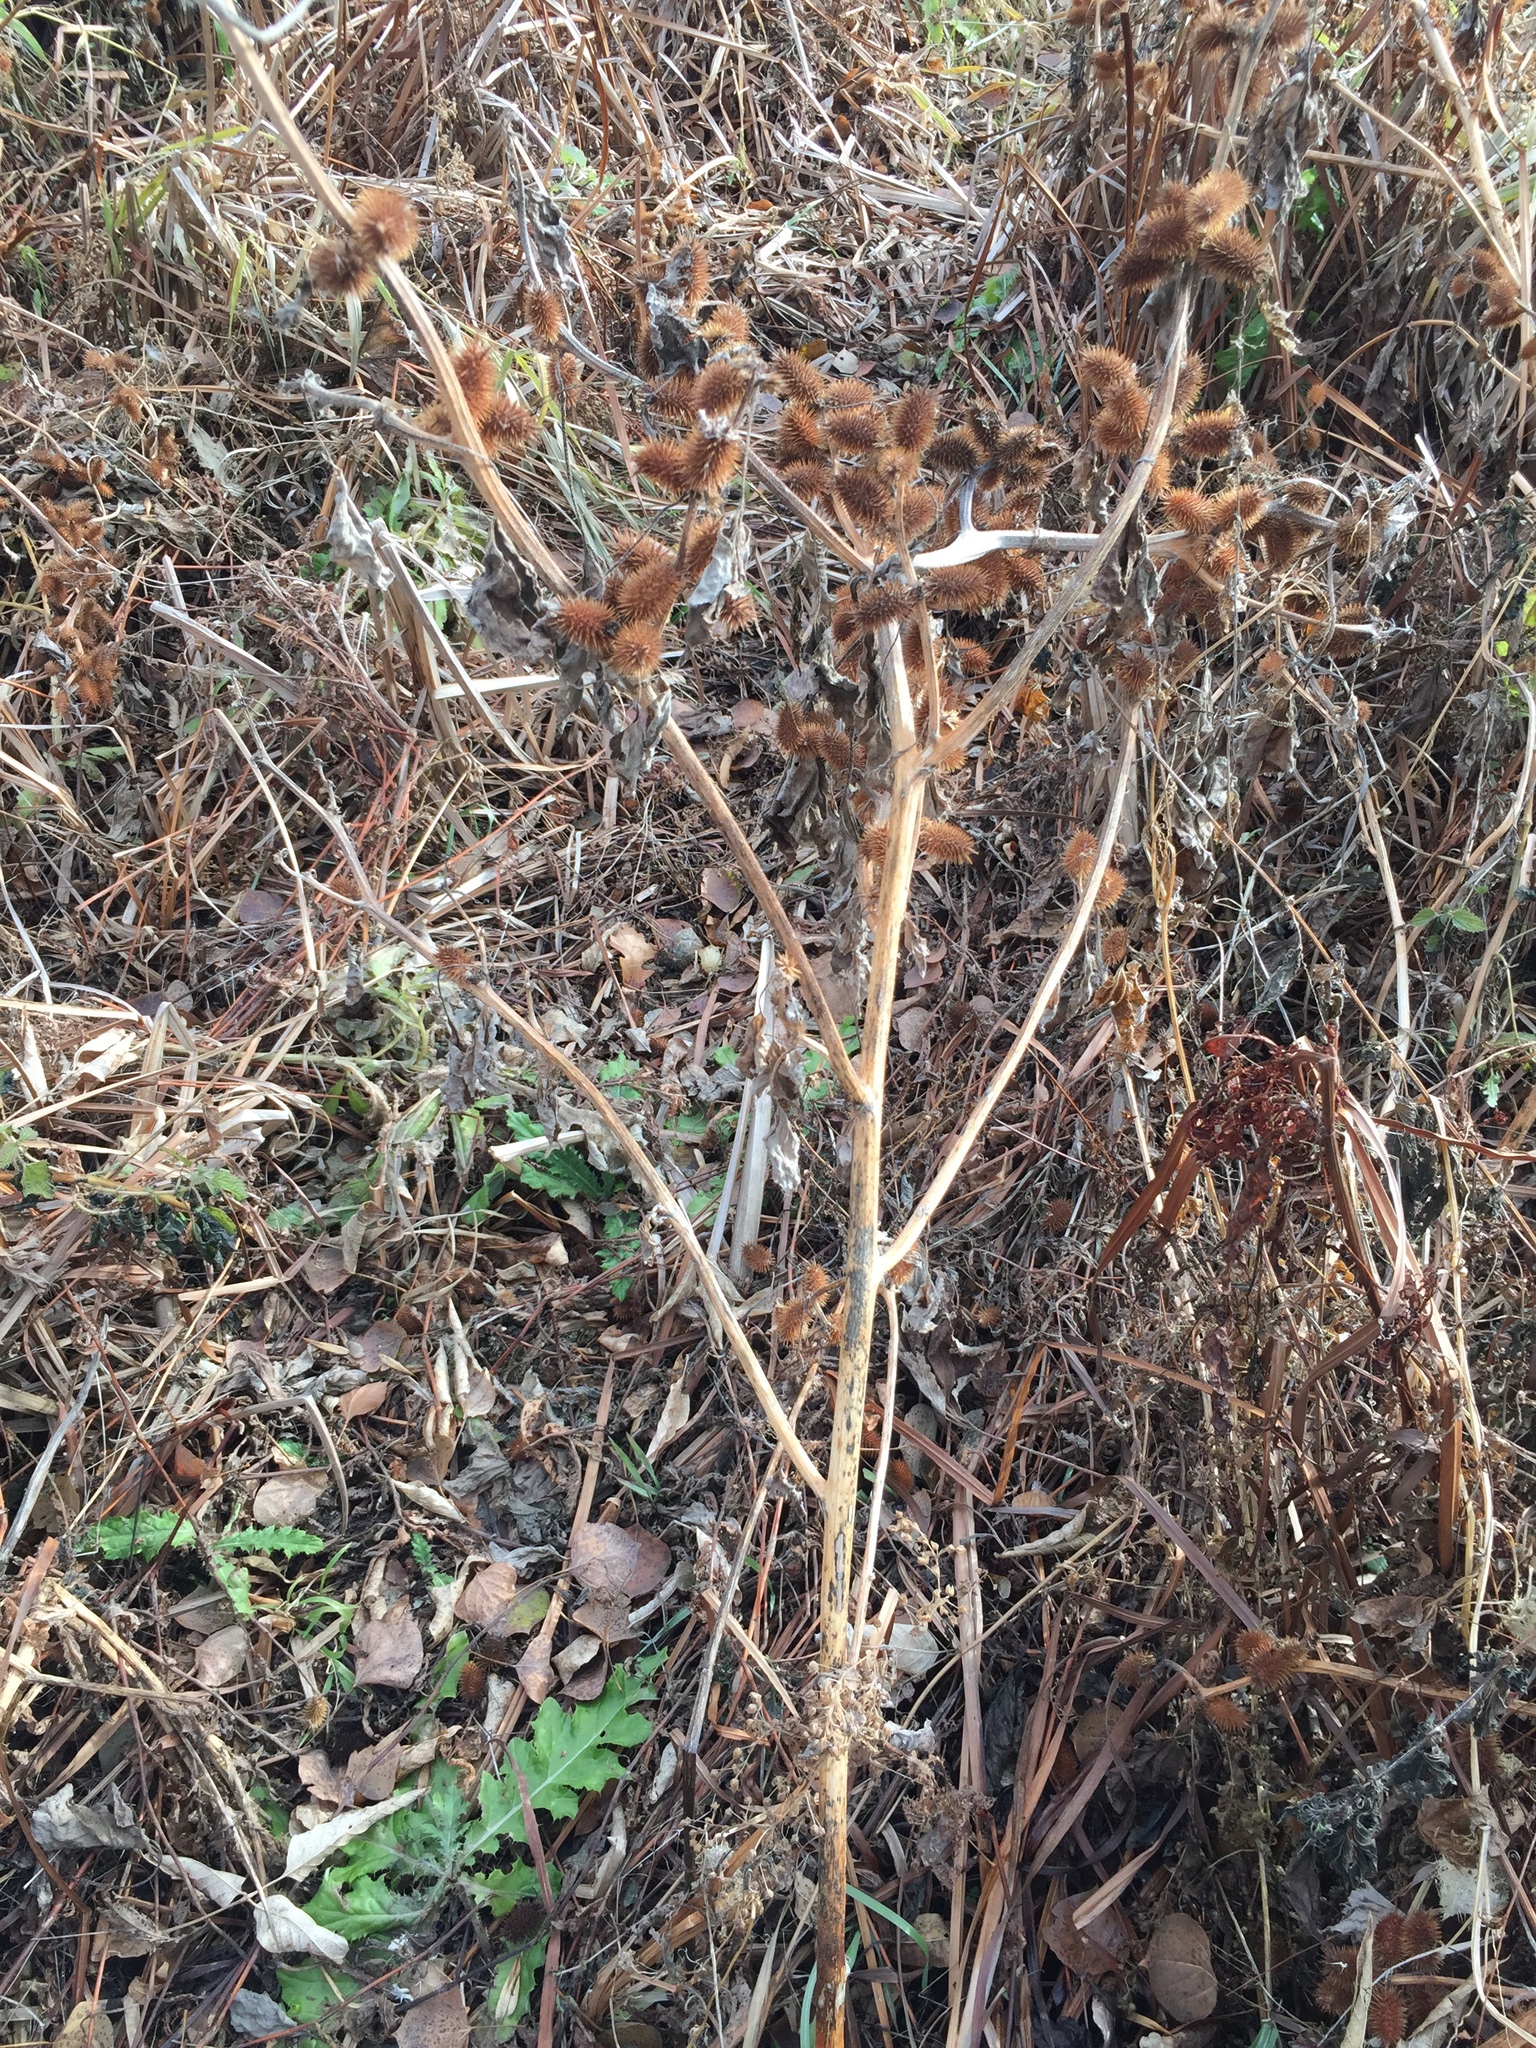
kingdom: Plantae
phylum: Tracheophyta
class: Magnoliopsida
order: Asterales
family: Asteraceae
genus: Xanthium
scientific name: Xanthium strumarium
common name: Rough cocklebur
